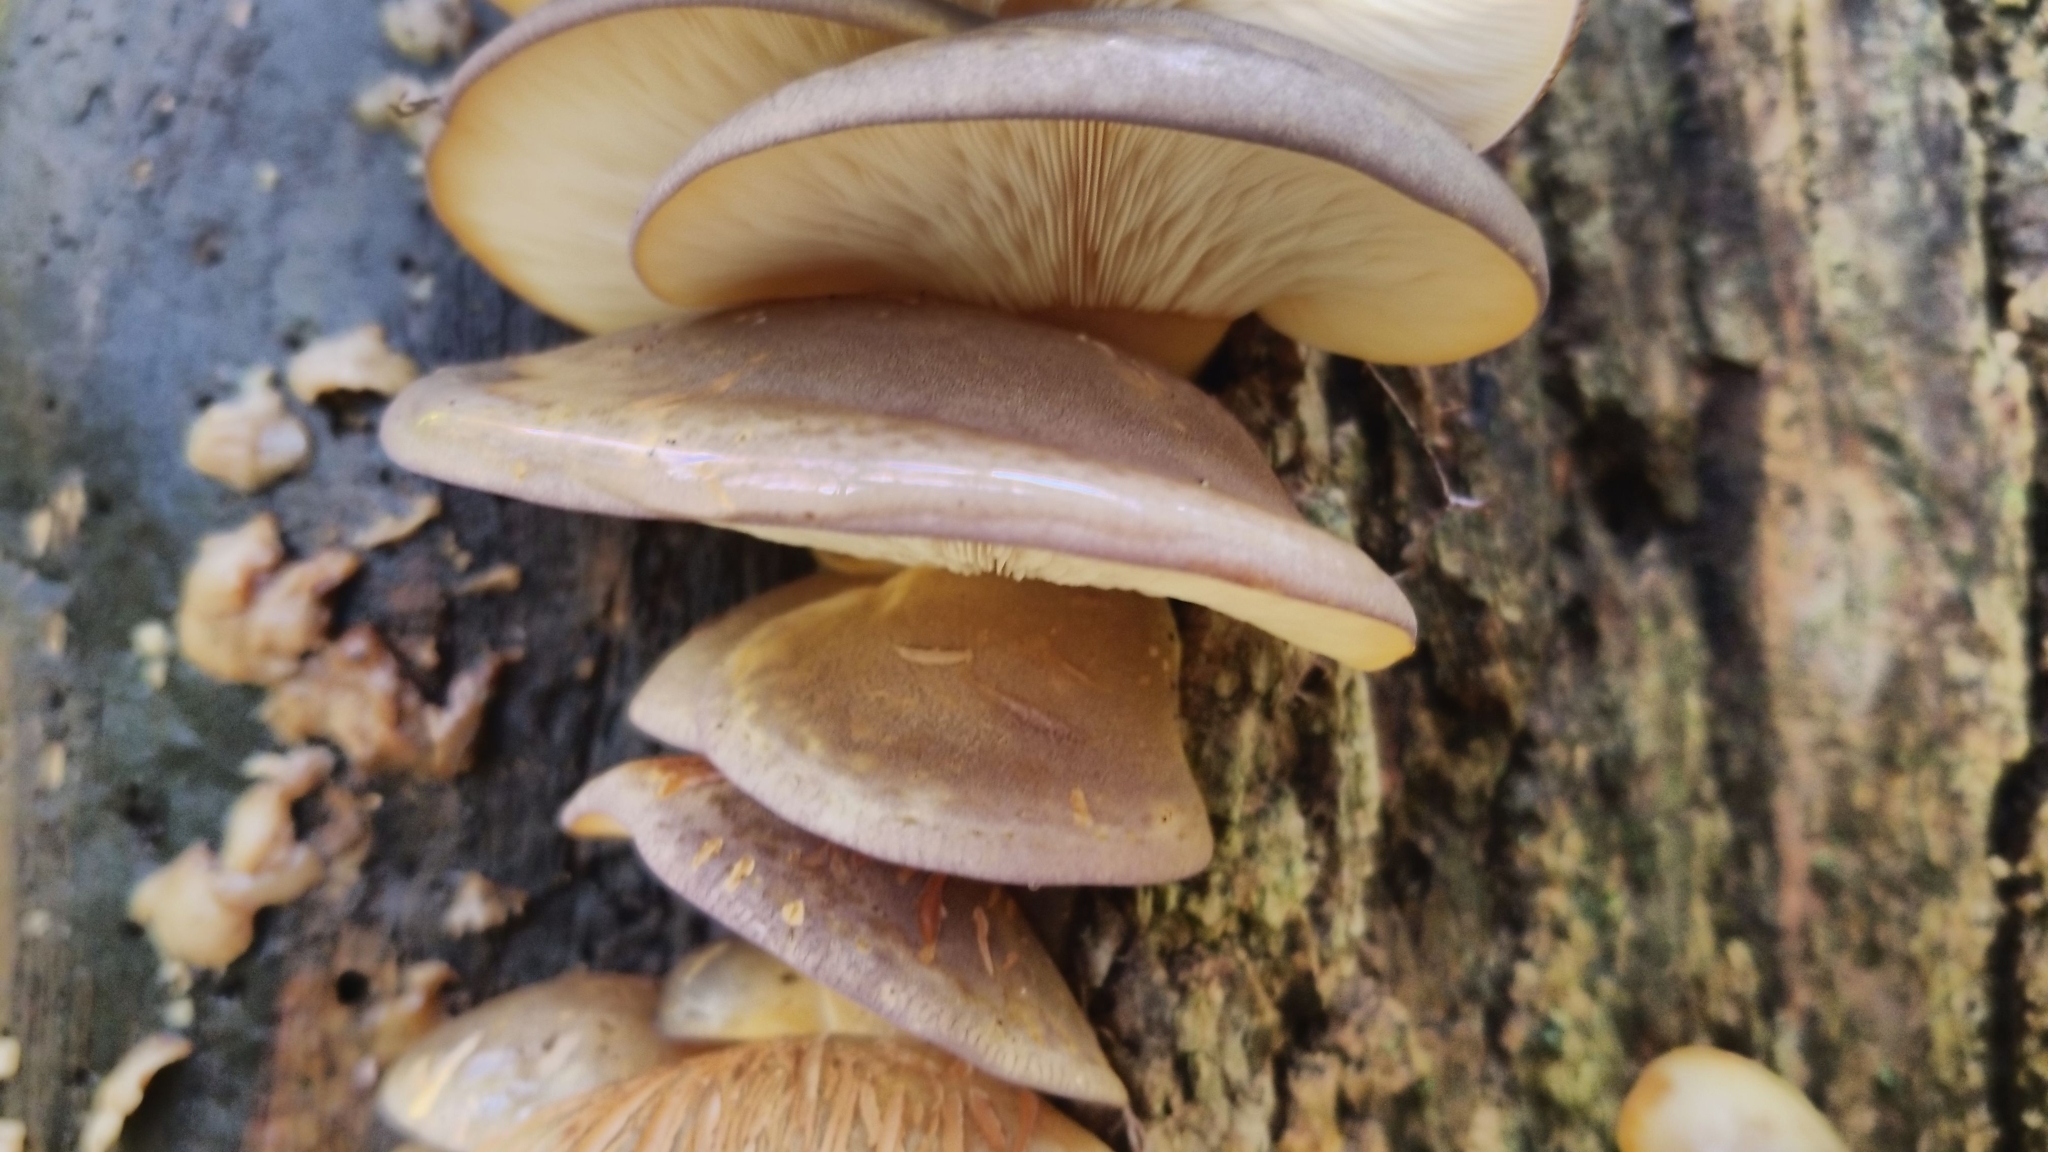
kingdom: Fungi
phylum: Basidiomycota
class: Agaricomycetes
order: Agaricales
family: Sarcomyxaceae
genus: Sarcomyxa
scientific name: Sarcomyxa serotina
